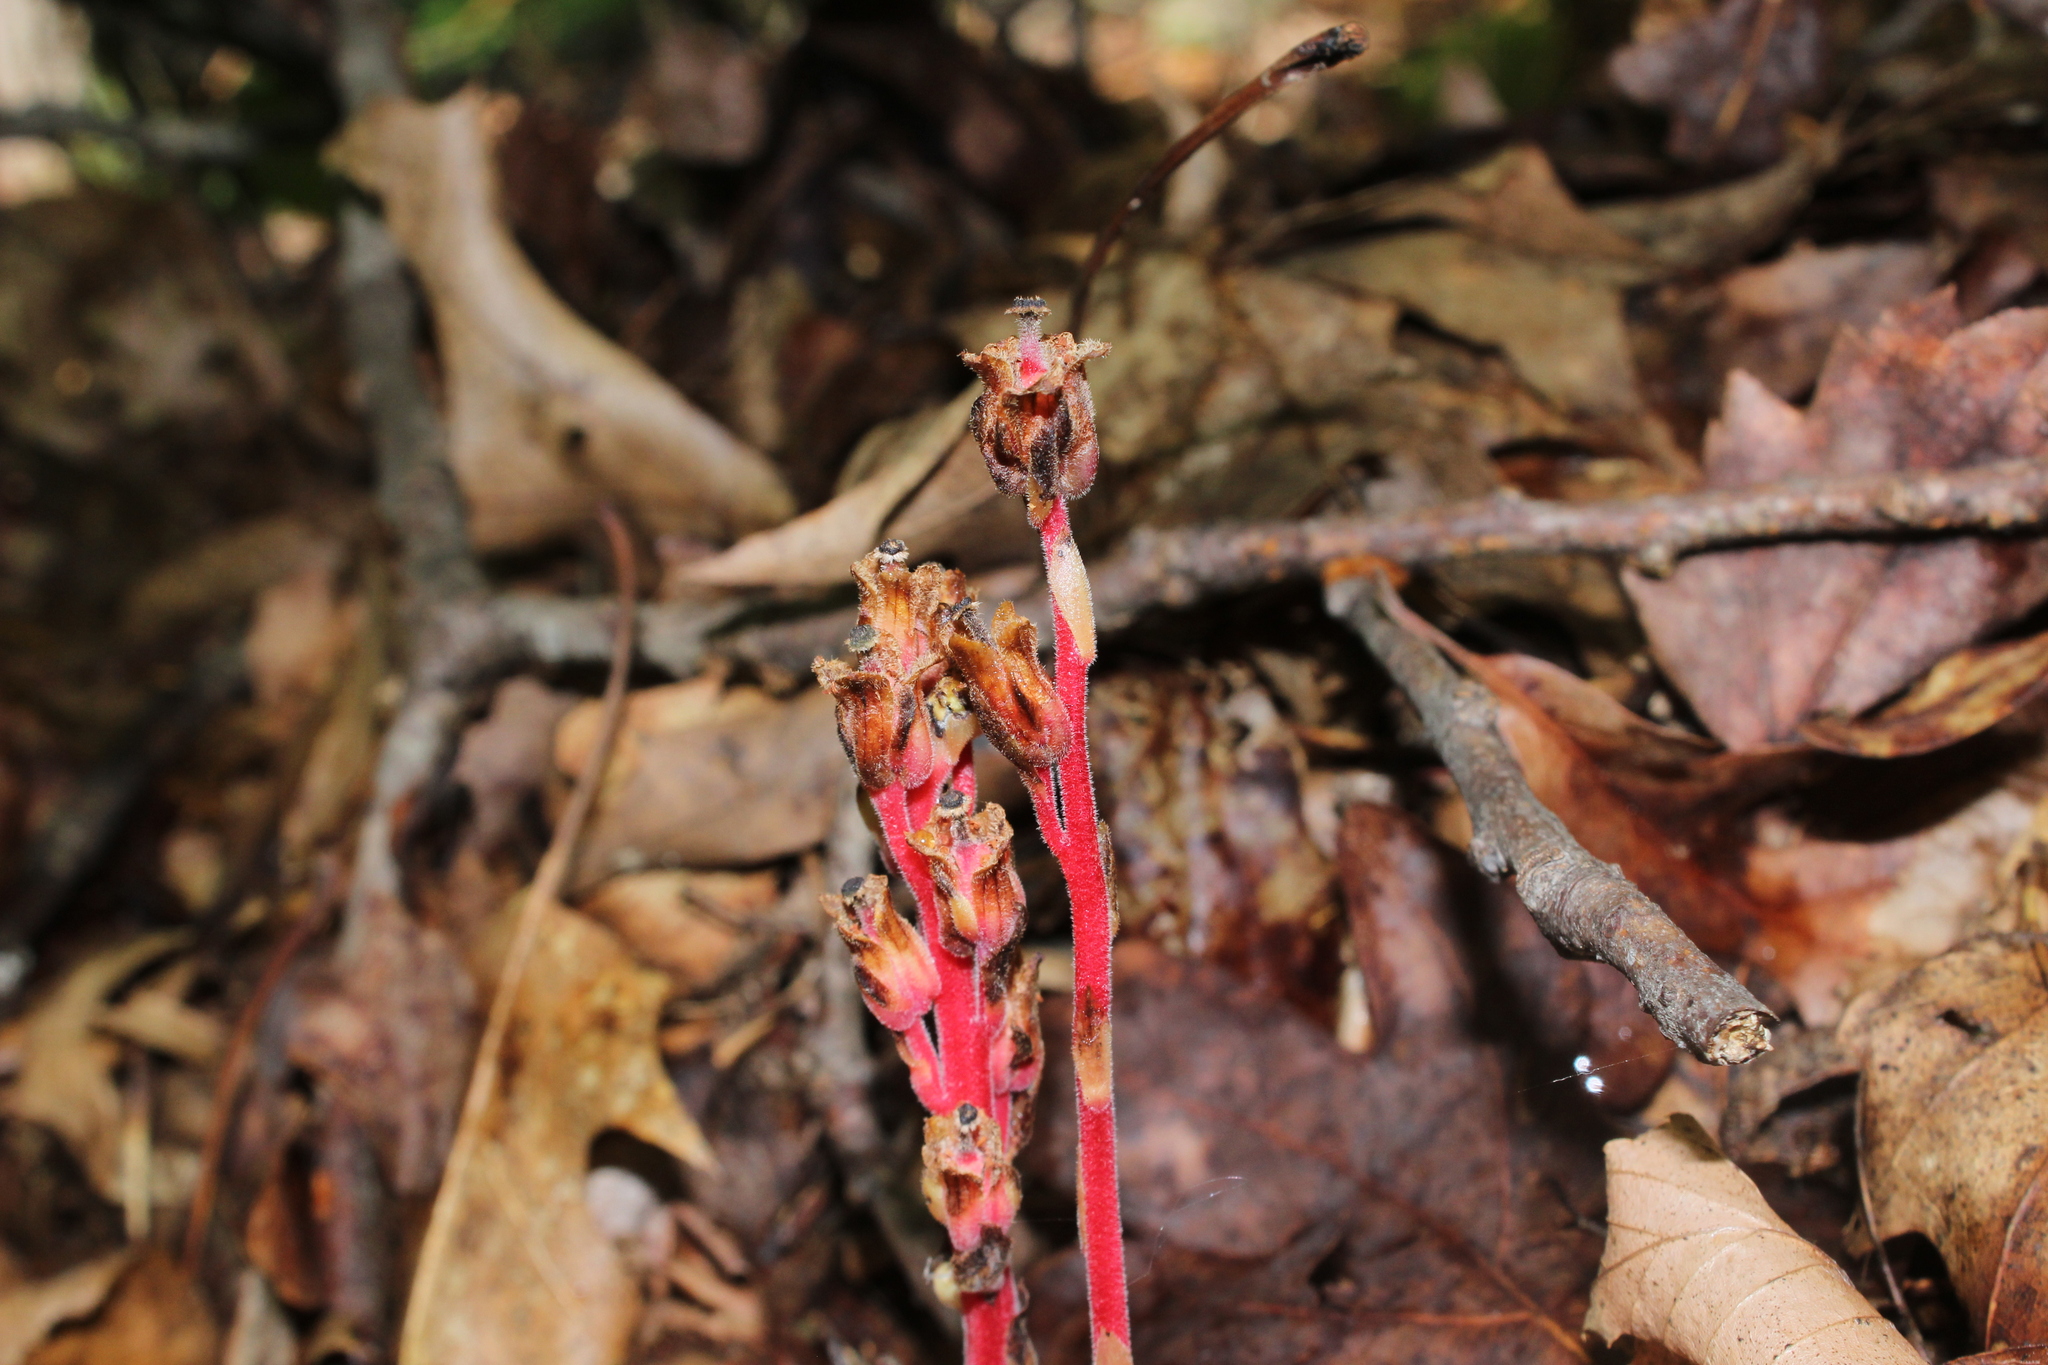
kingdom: Plantae
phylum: Tracheophyta
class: Magnoliopsida
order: Ericales
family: Ericaceae
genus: Hypopitys
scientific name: Hypopitys monotropa
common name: Yellow bird's-nest
